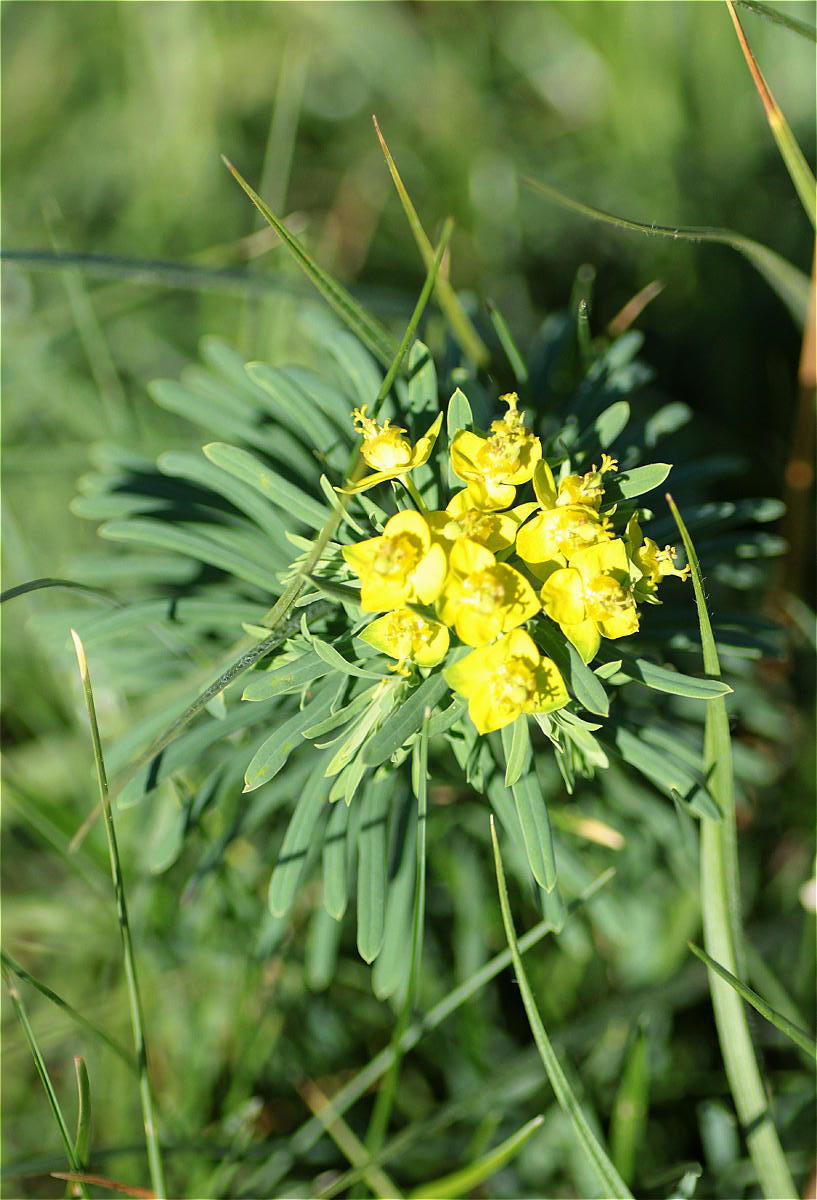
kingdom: Plantae
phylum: Tracheophyta
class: Magnoliopsida
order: Malpighiales
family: Euphorbiaceae
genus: Euphorbia
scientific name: Euphorbia cyparissias
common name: Cypress spurge
